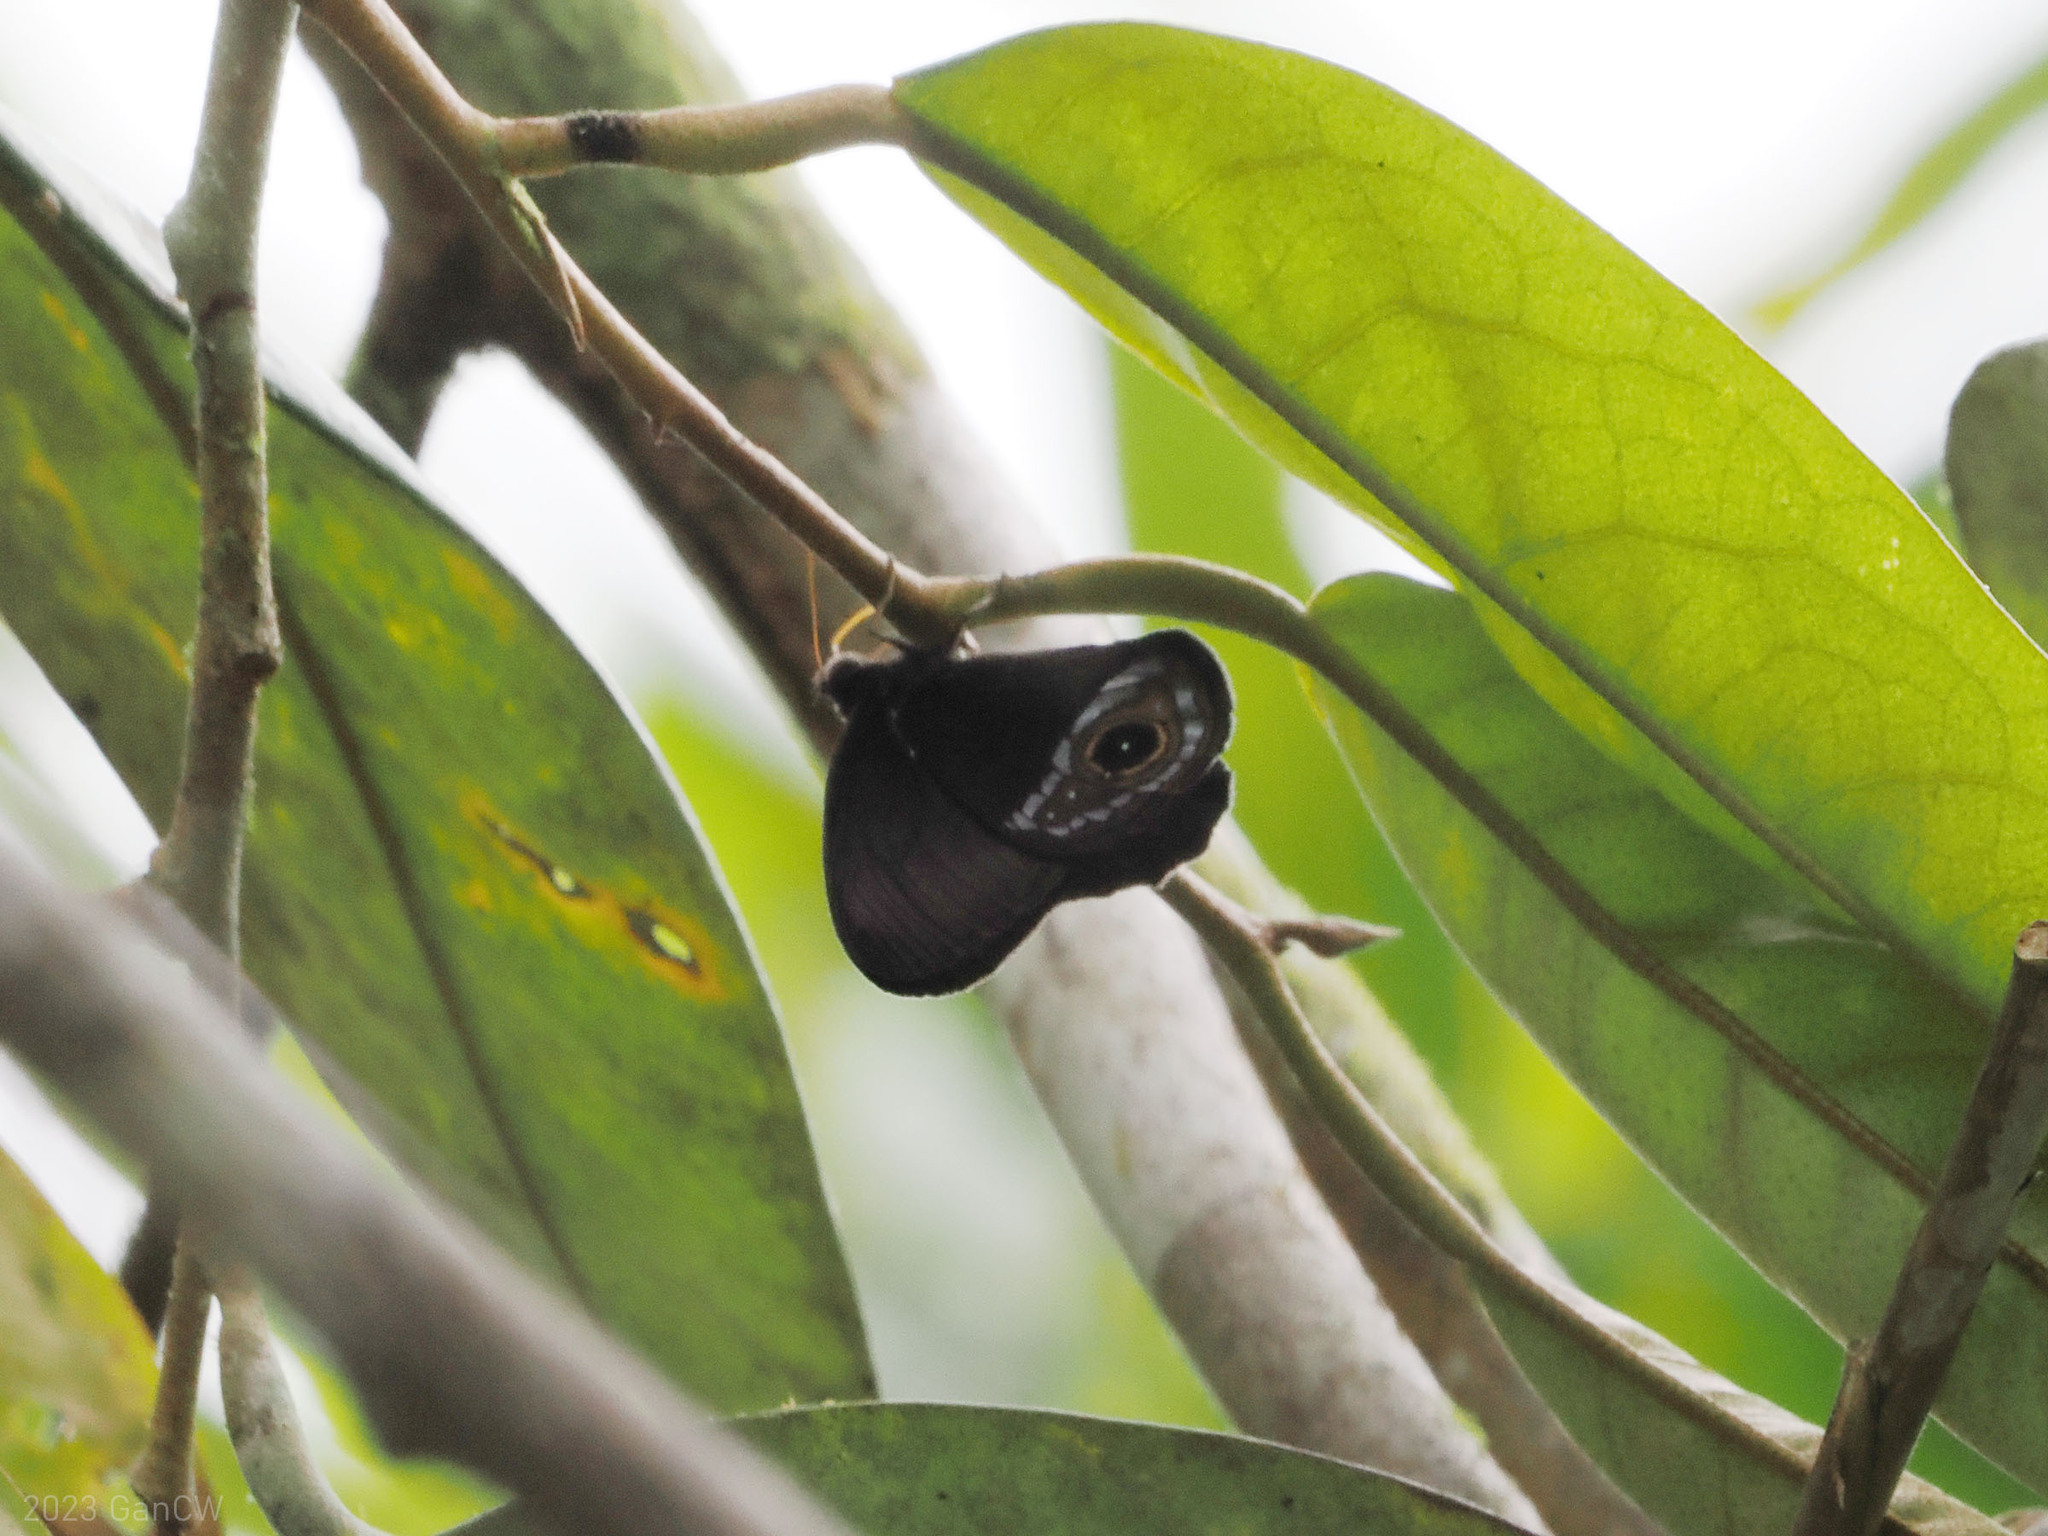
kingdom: Animalia
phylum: Arthropoda
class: Insecta
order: Lepidoptera
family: Nymphalidae
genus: Harsiesis
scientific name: Harsiesis hygea
